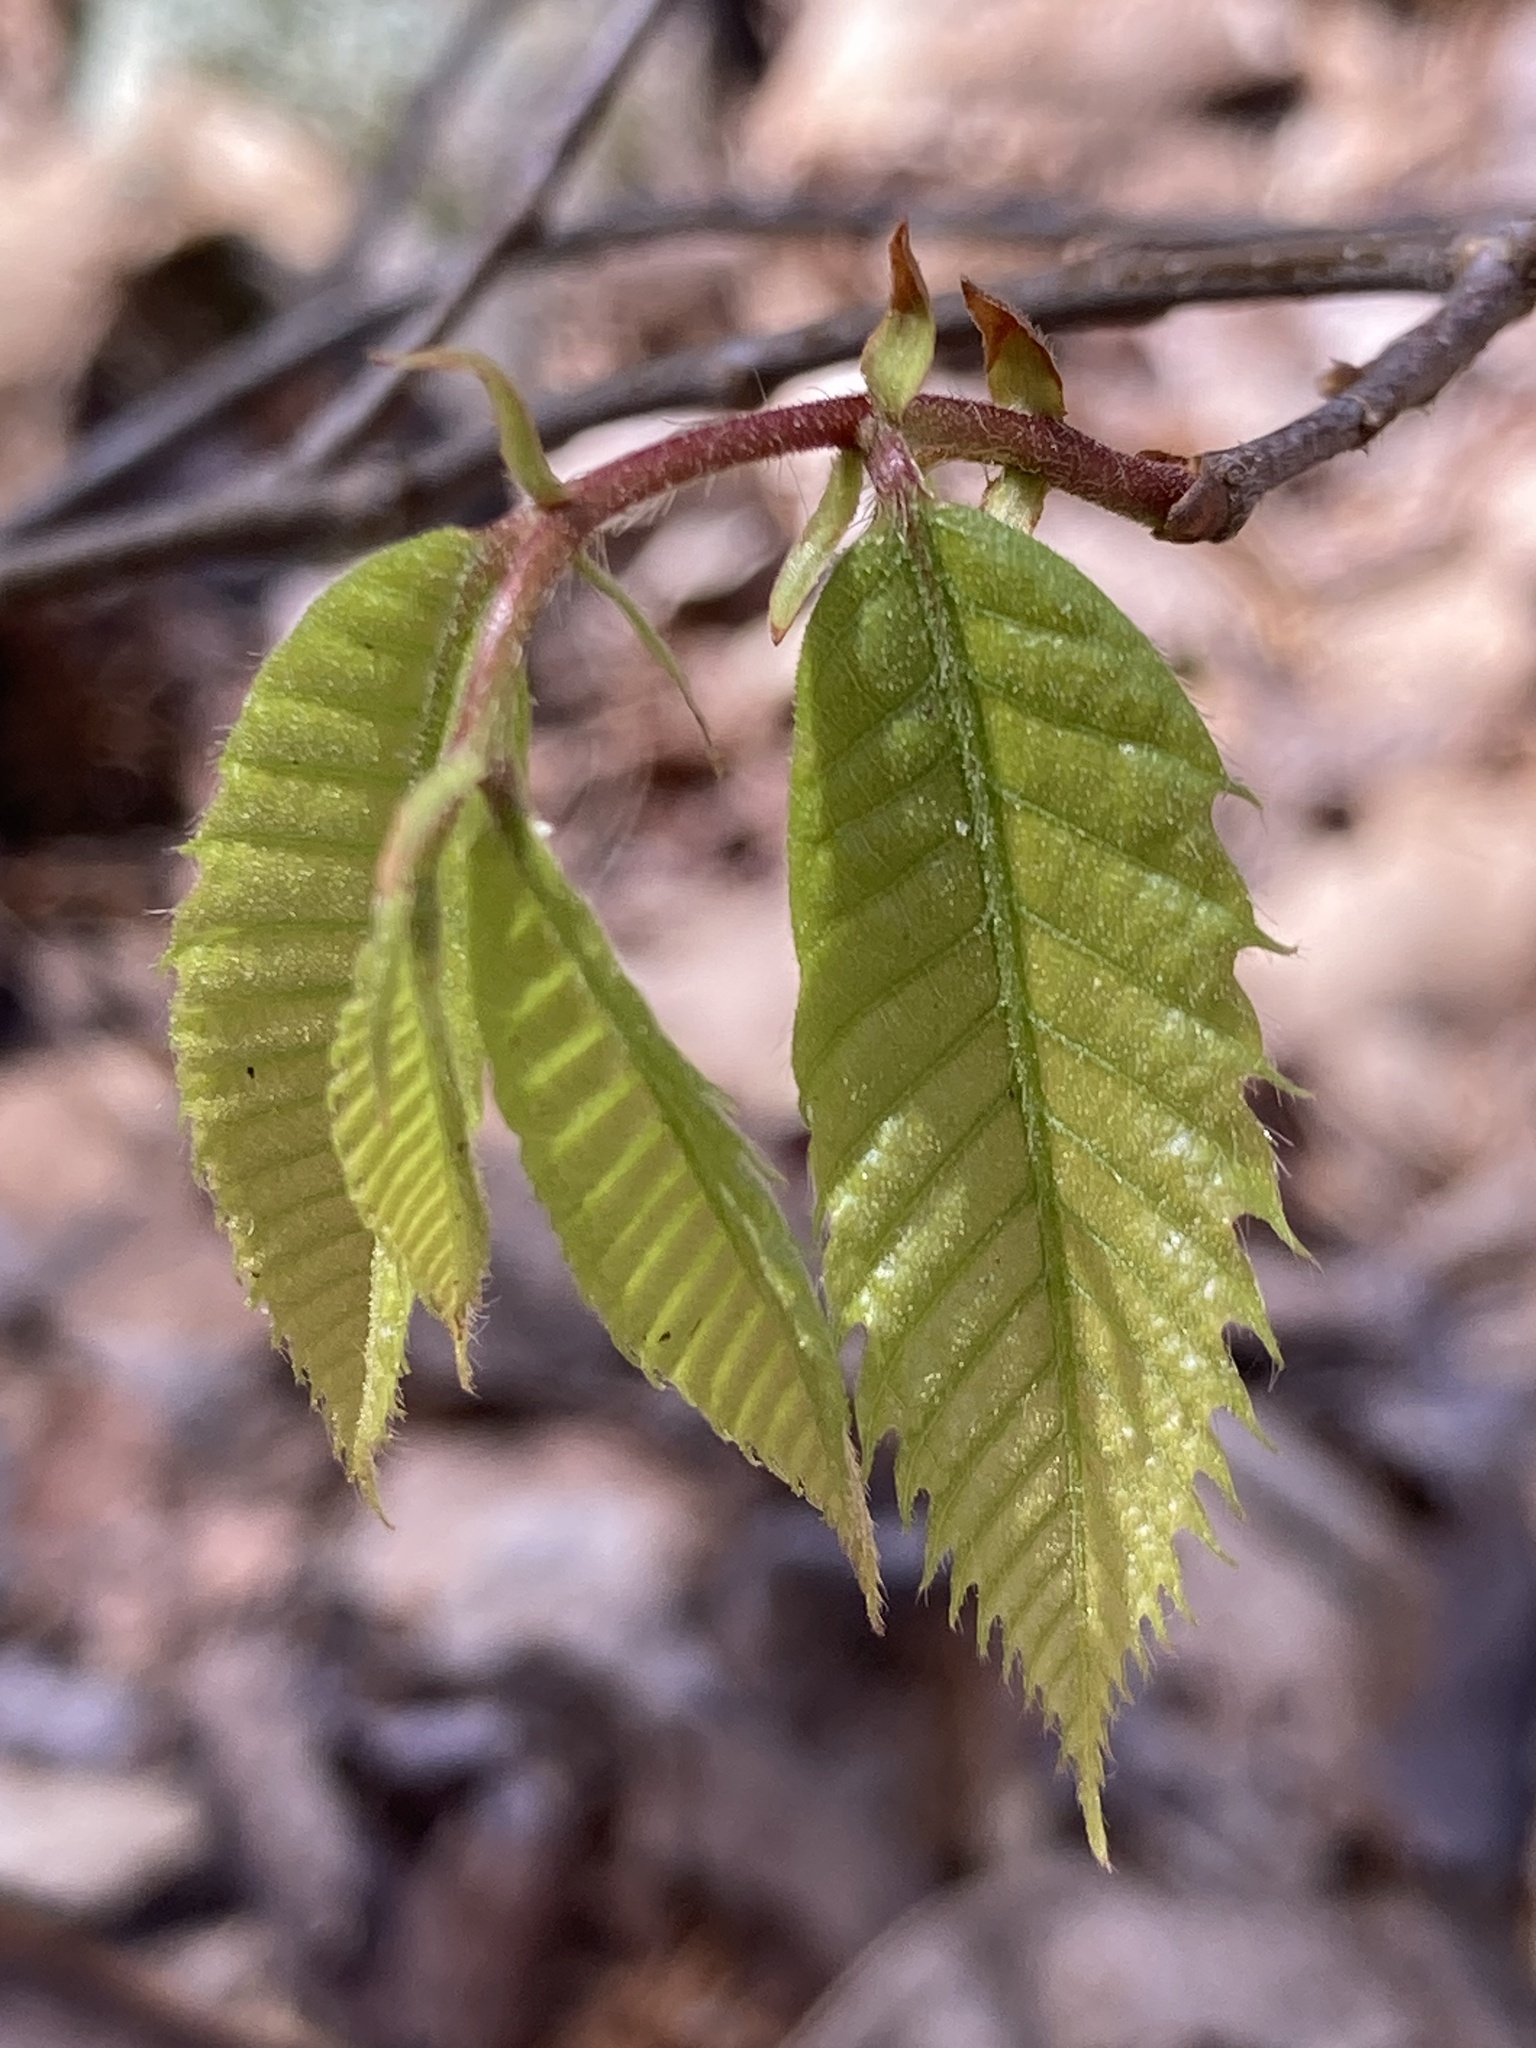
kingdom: Plantae
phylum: Tracheophyta
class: Magnoliopsida
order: Fagales
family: Fagaceae
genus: Castanea
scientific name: Castanea dentata
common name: American chestnut
